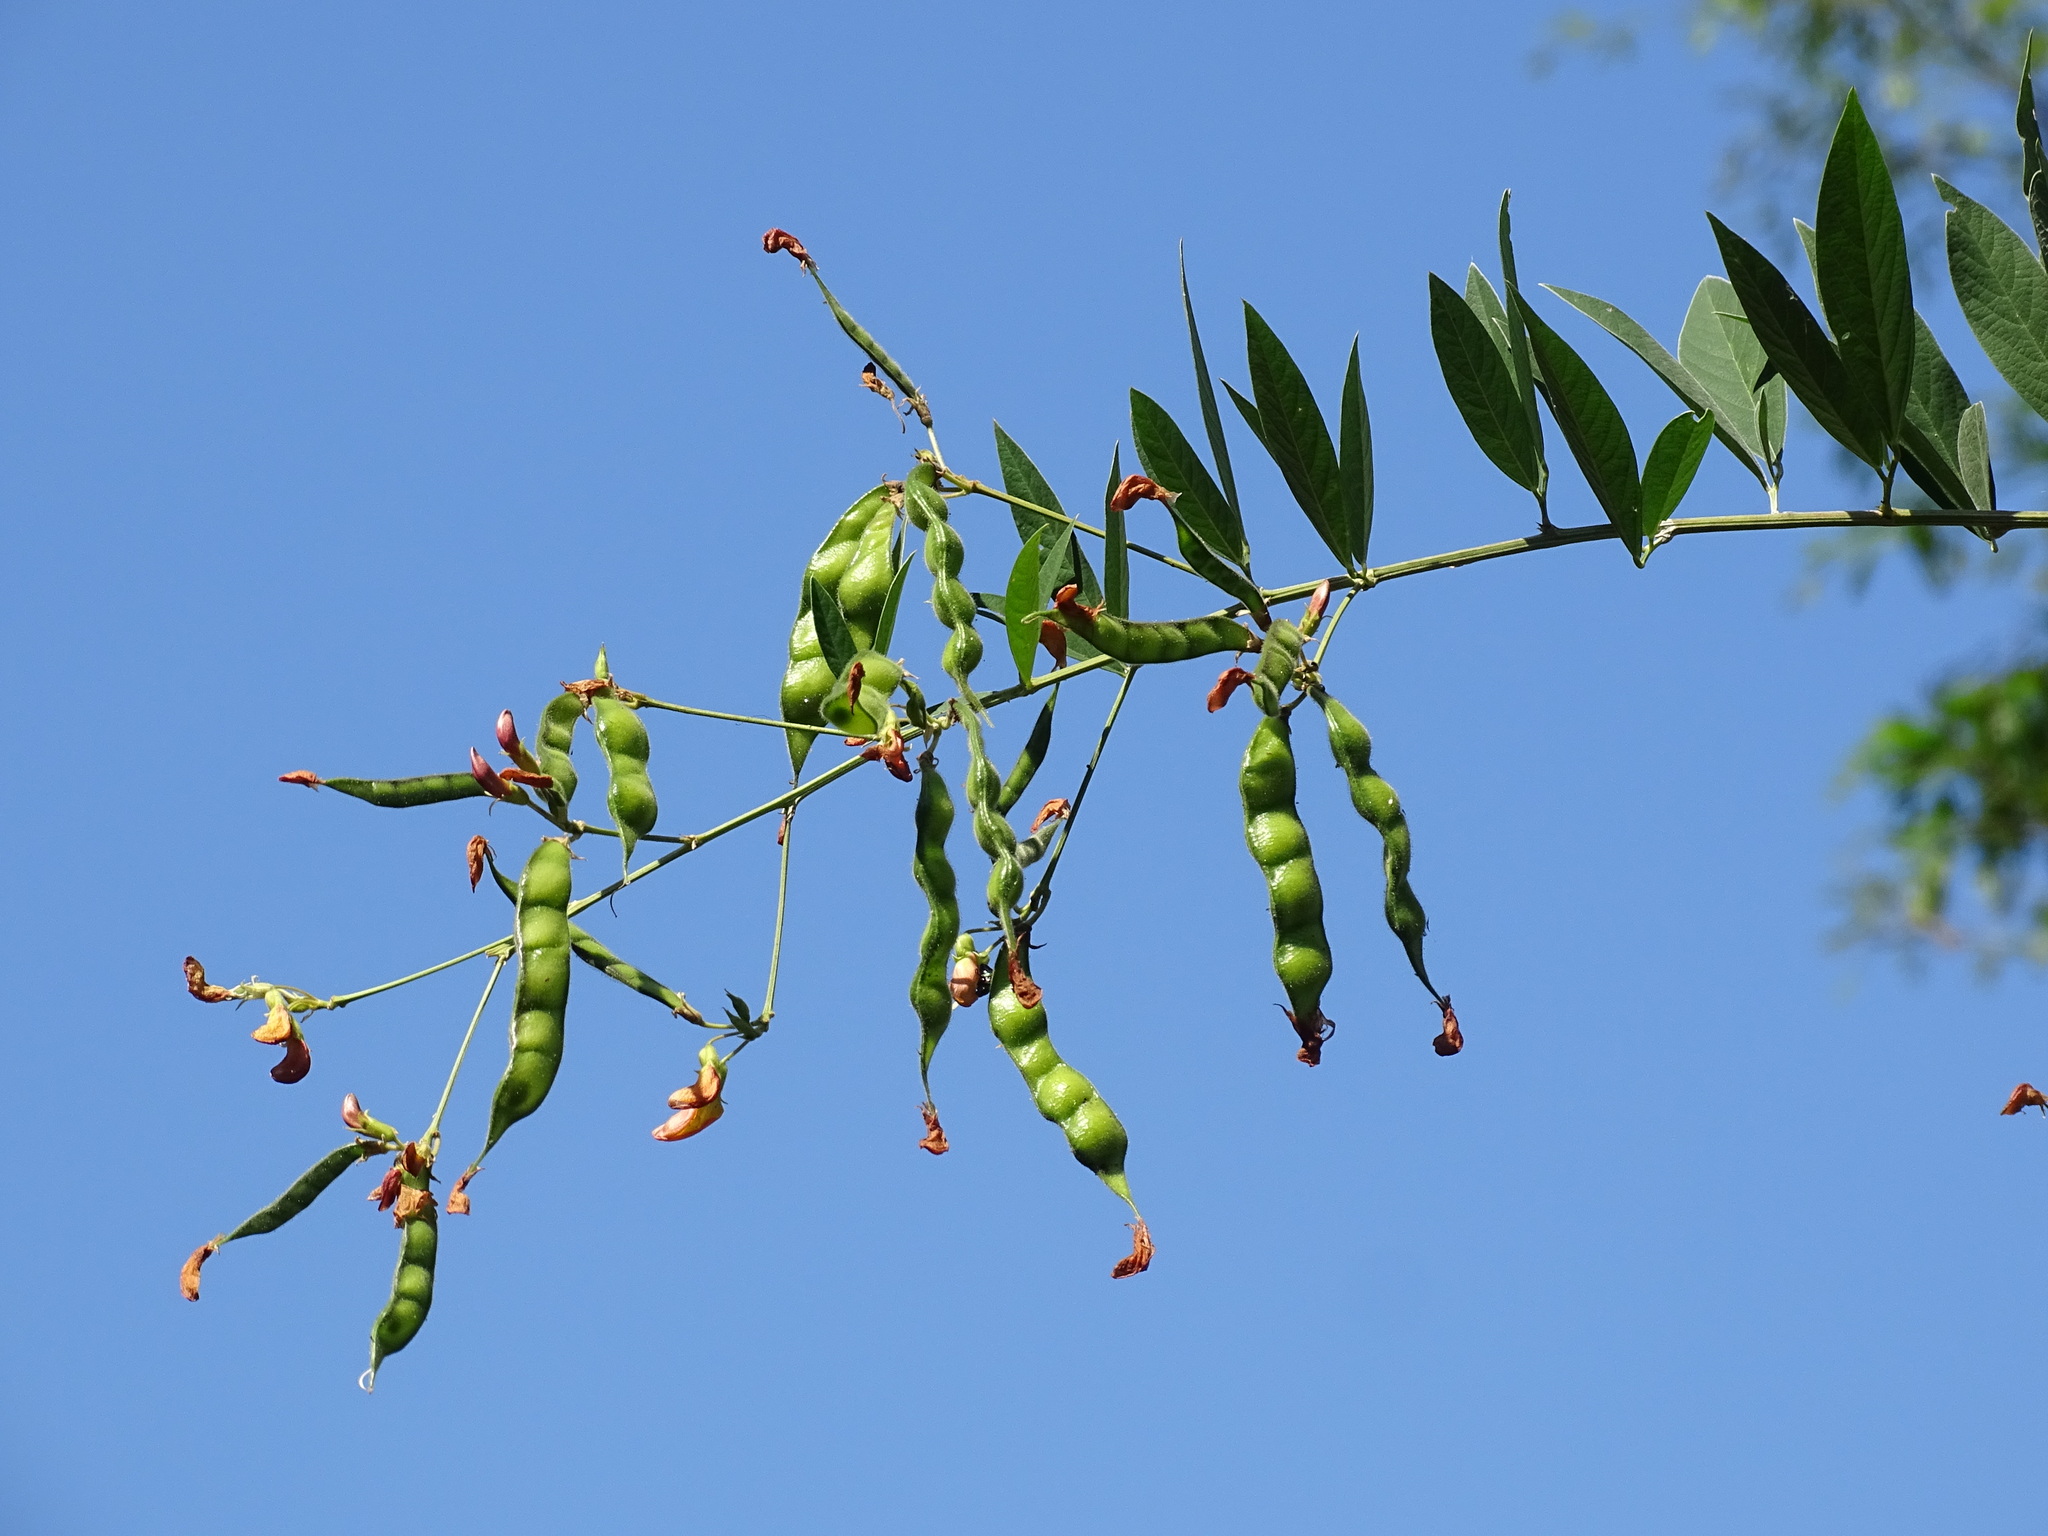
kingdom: Plantae
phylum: Tracheophyta
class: Magnoliopsida
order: Fabales
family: Fabaceae
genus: Cajanus
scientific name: Cajanus cajan
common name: Pigeonpea
